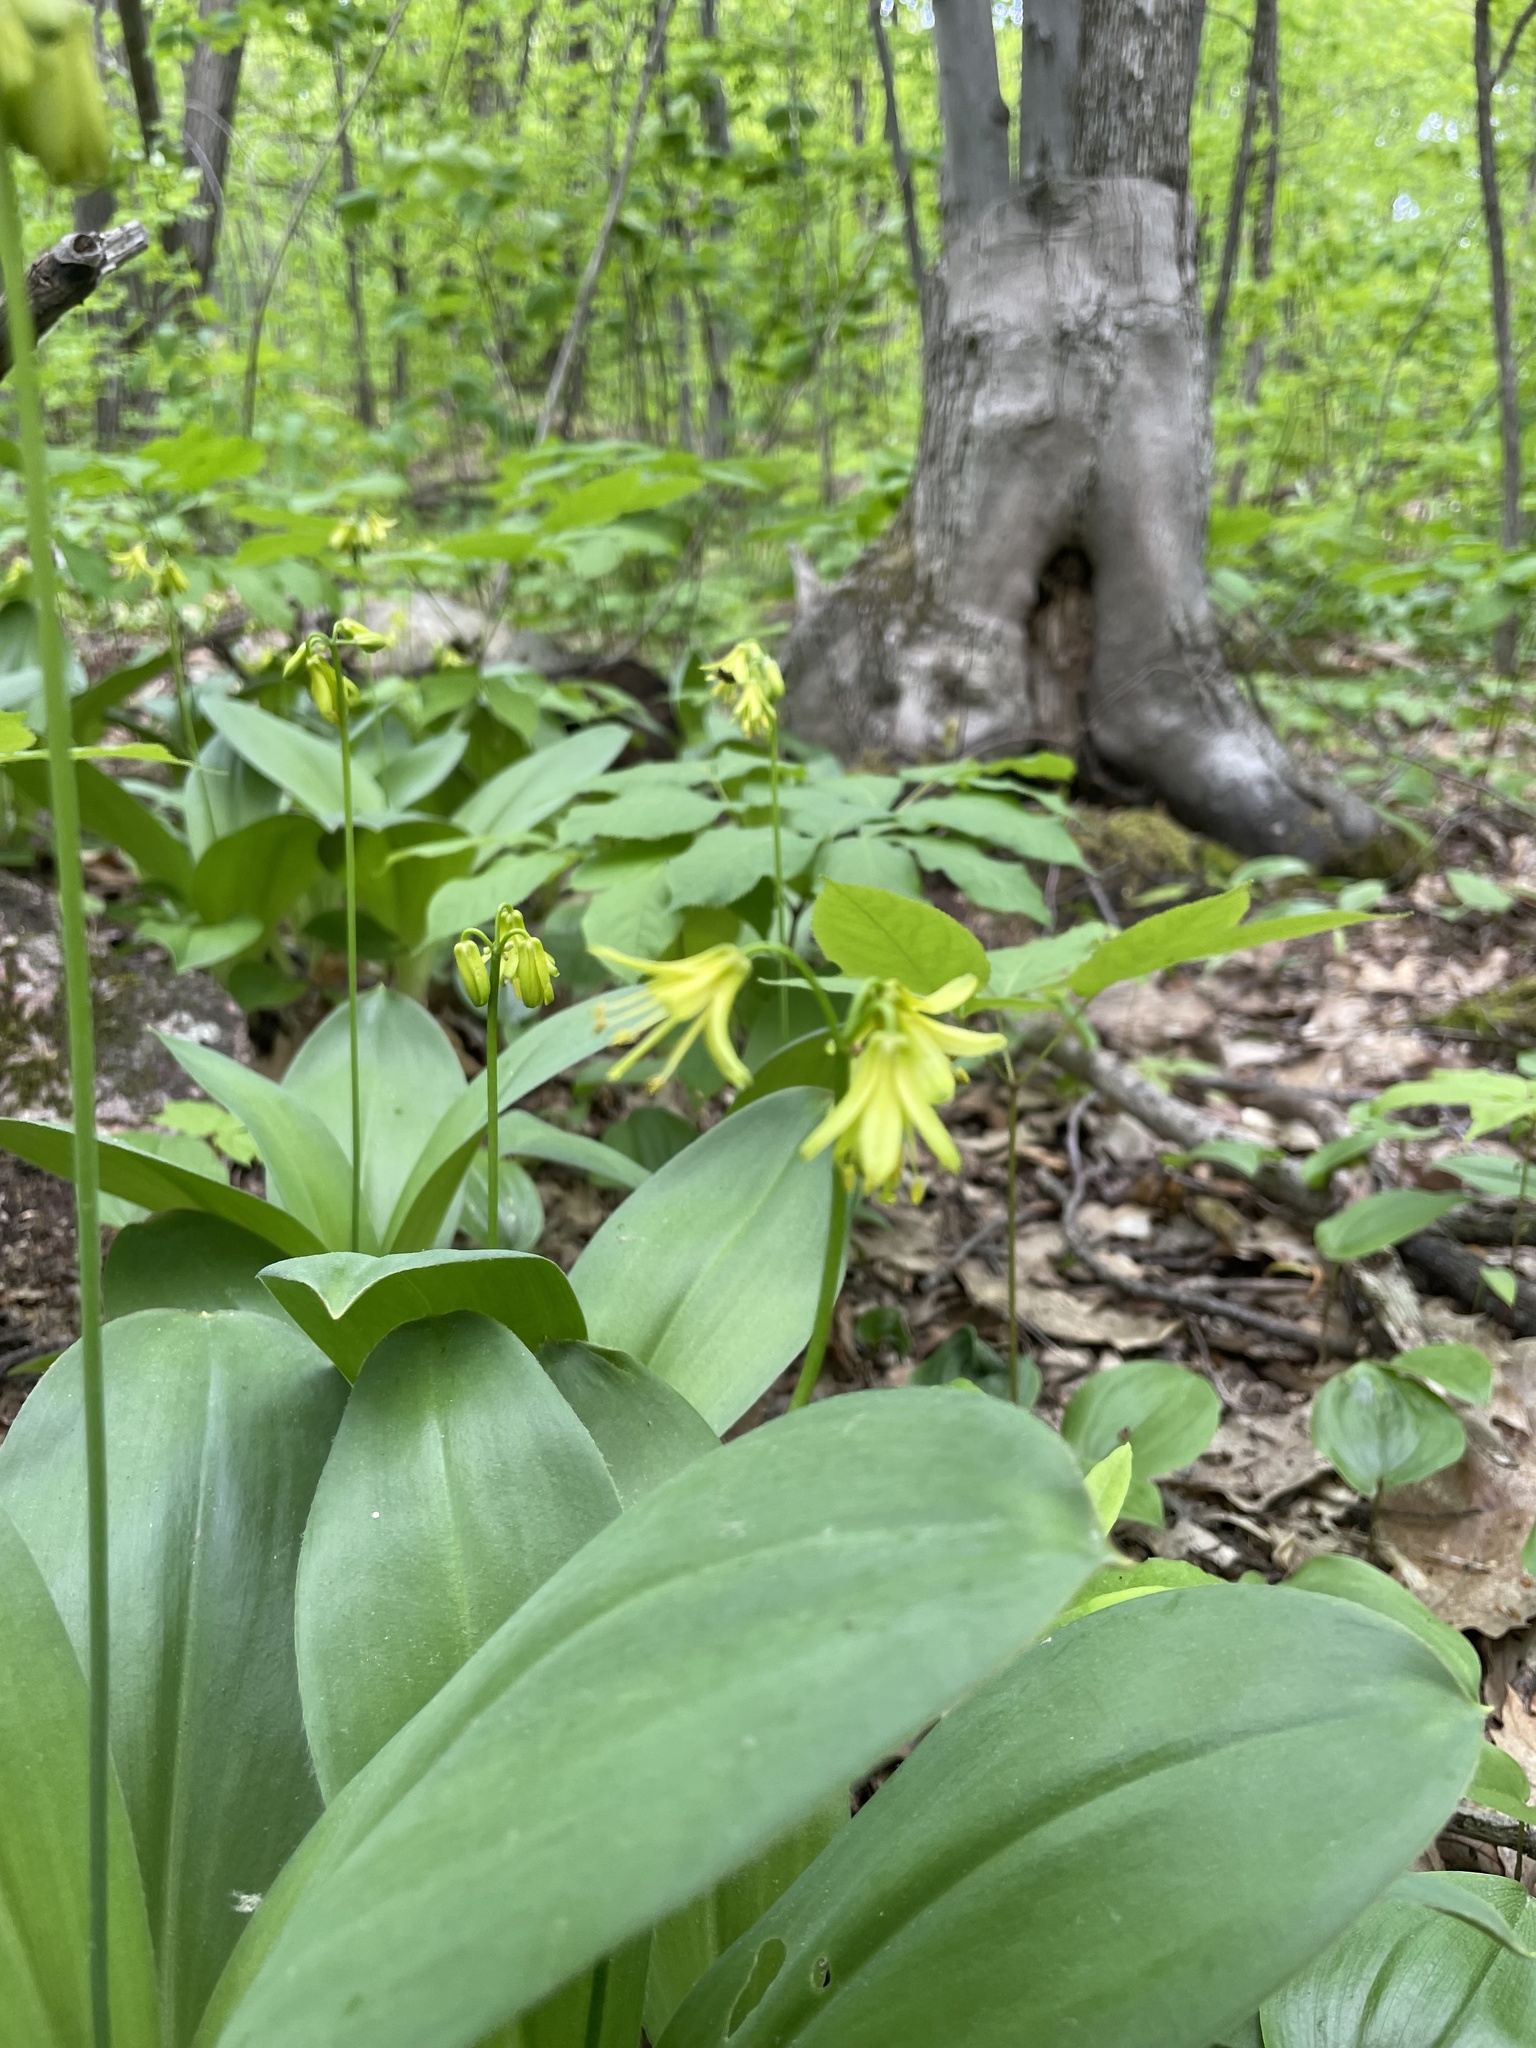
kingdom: Plantae
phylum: Tracheophyta
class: Liliopsida
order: Liliales
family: Liliaceae
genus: Clintonia
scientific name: Clintonia borealis
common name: Yellow clintonia
